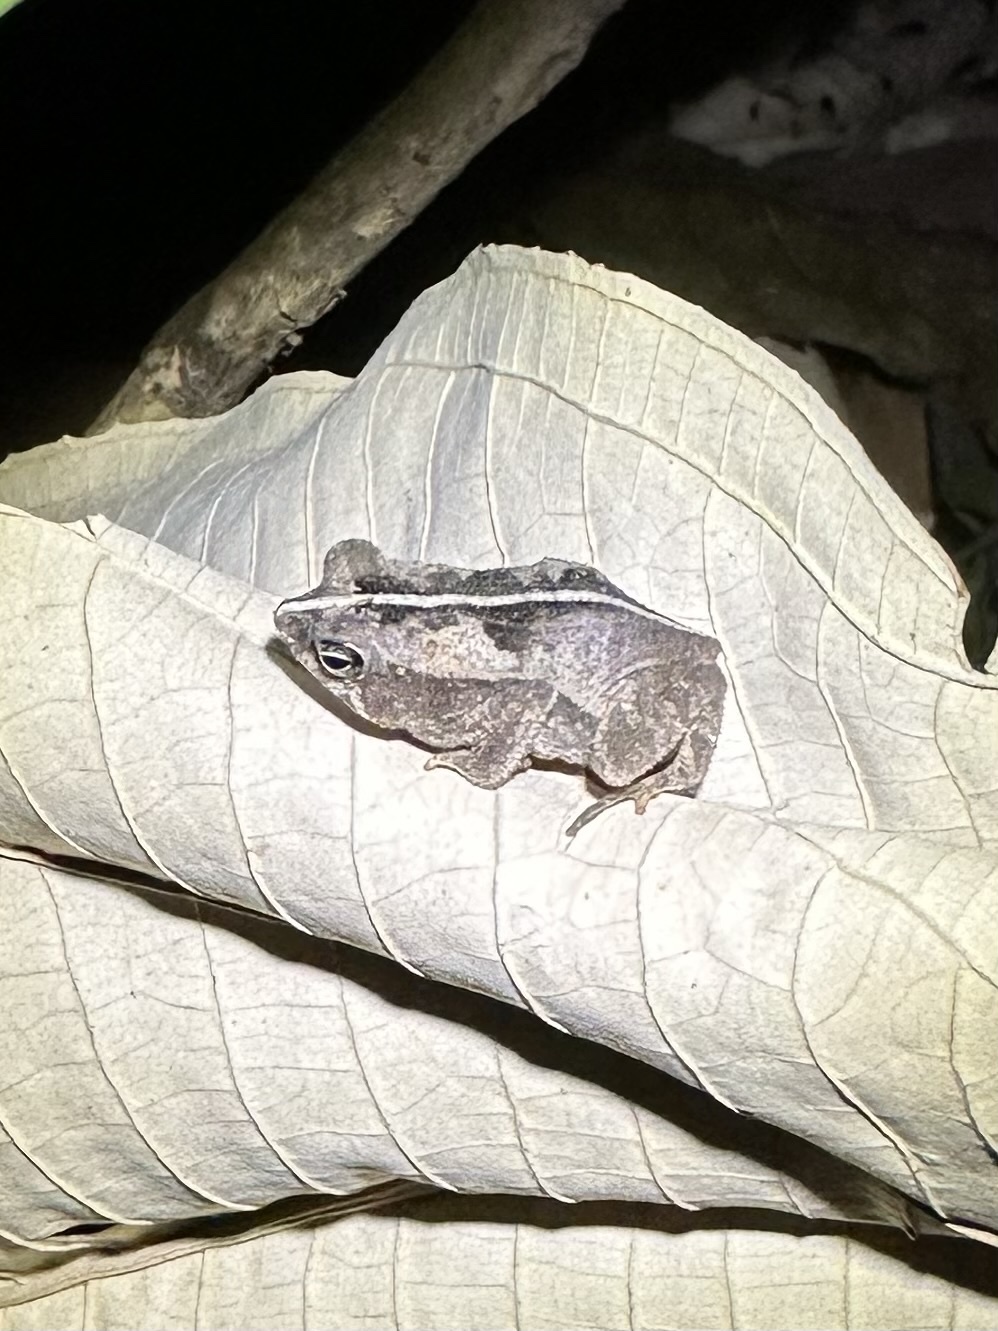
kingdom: Animalia
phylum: Chordata
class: Amphibia
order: Anura
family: Bufonidae
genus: Rhinella
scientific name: Rhinella alata
